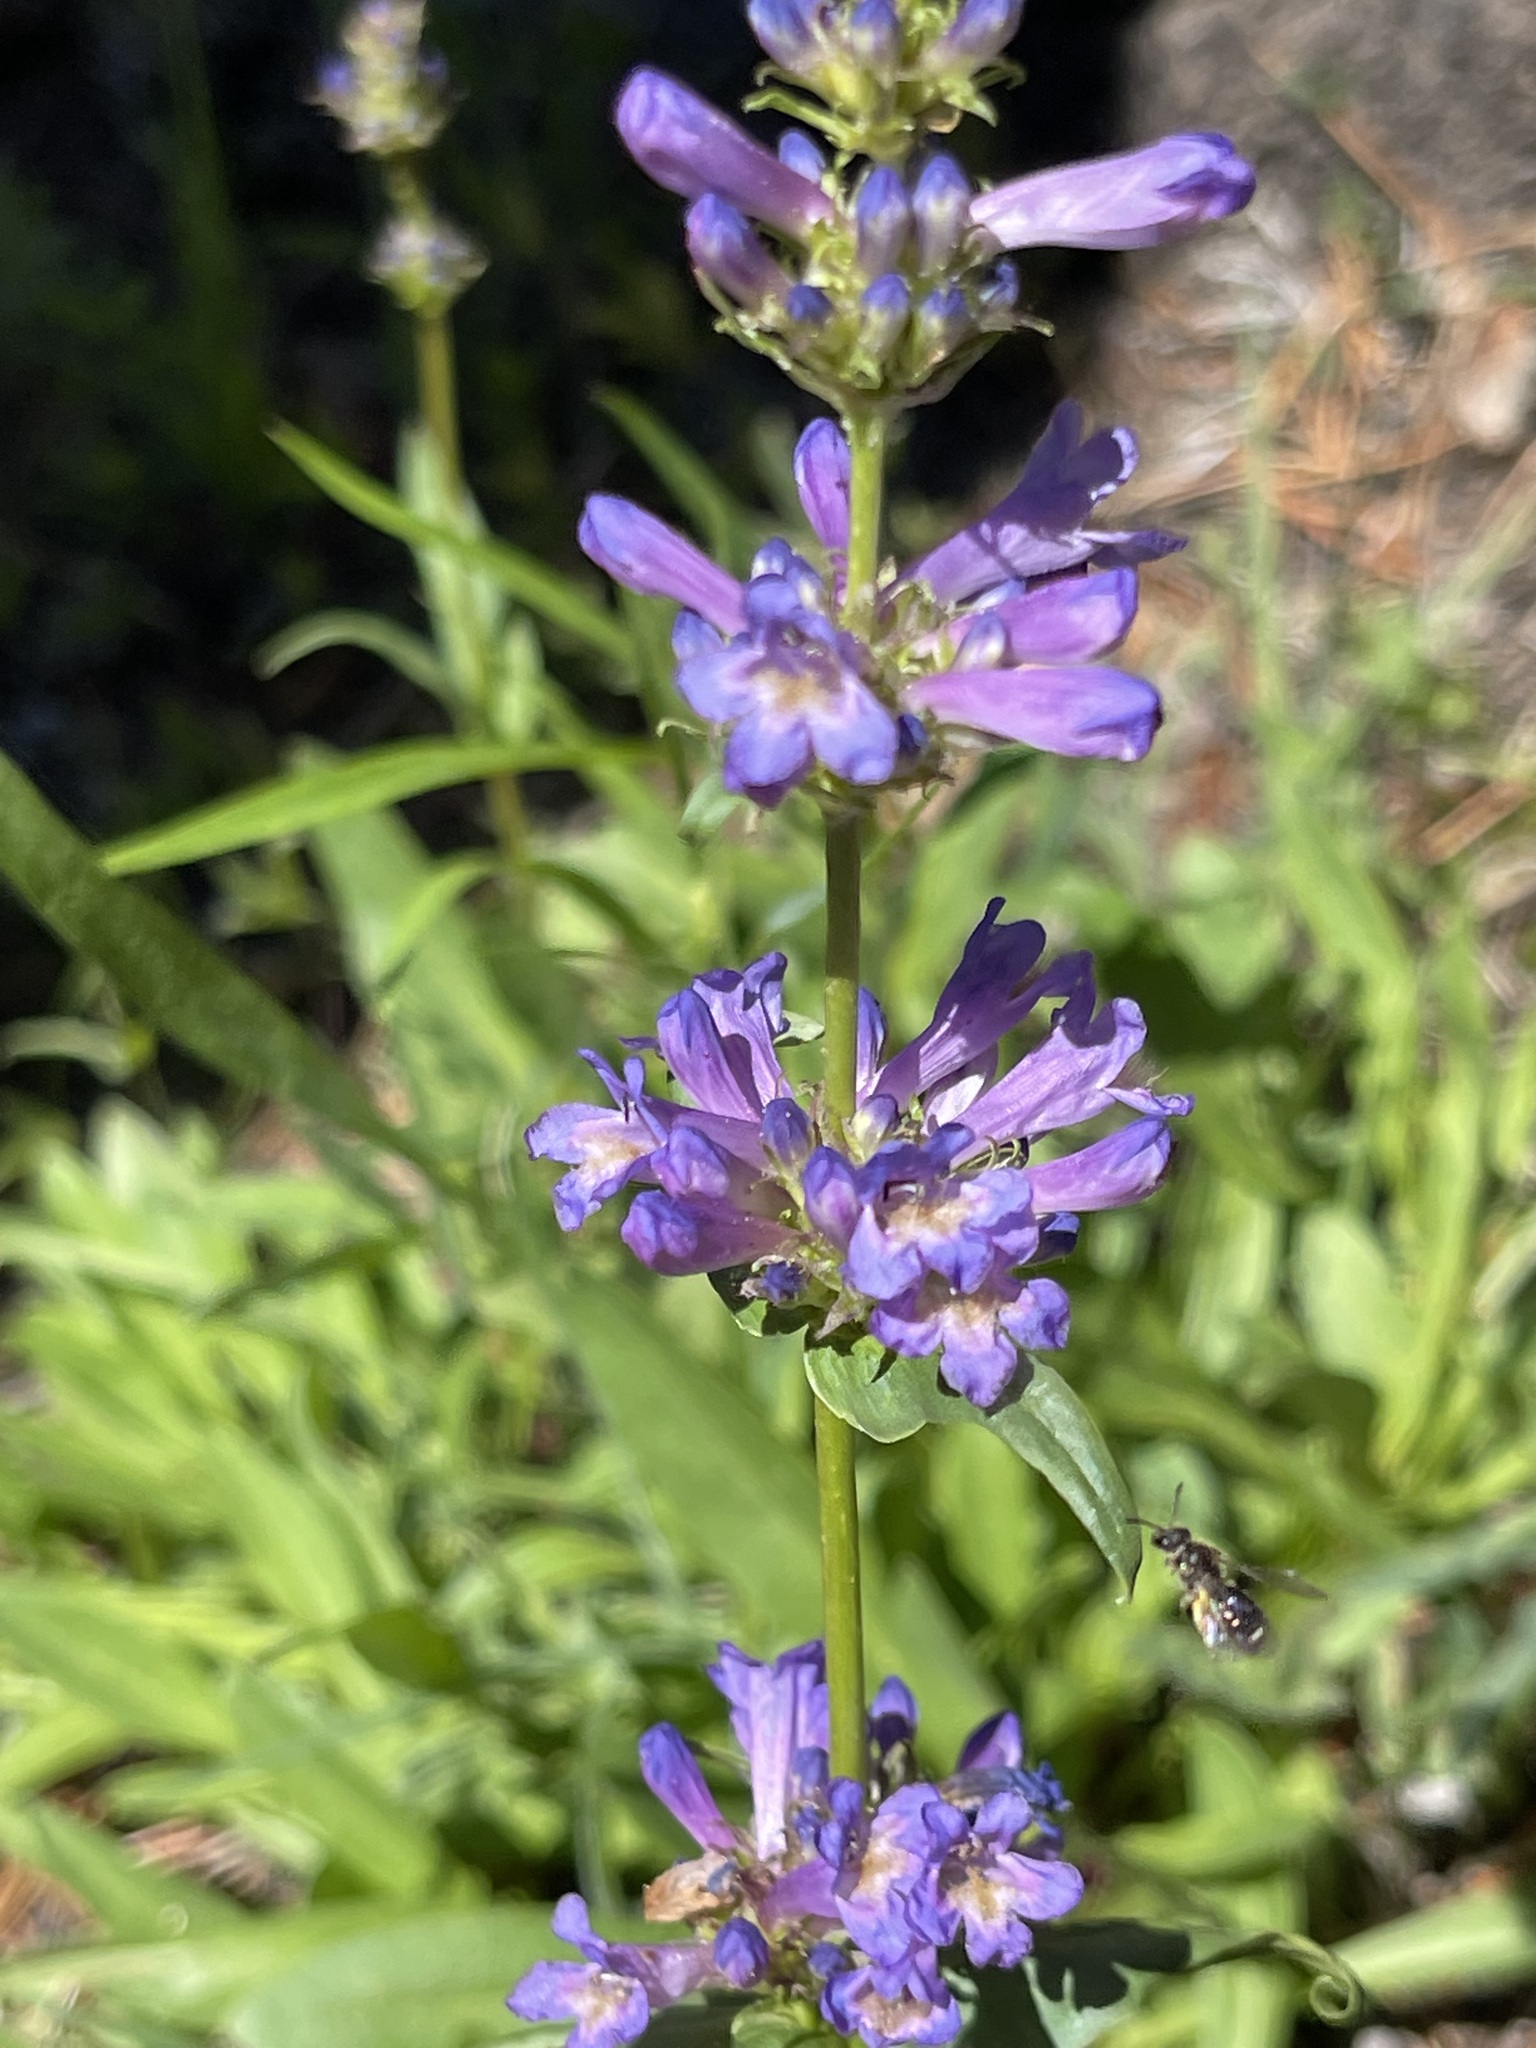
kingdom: Plantae
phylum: Tracheophyta
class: Magnoliopsida
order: Lamiales
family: Plantaginaceae
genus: Penstemon
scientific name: Penstemon rydbergii
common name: Rydberg's beardtongue
